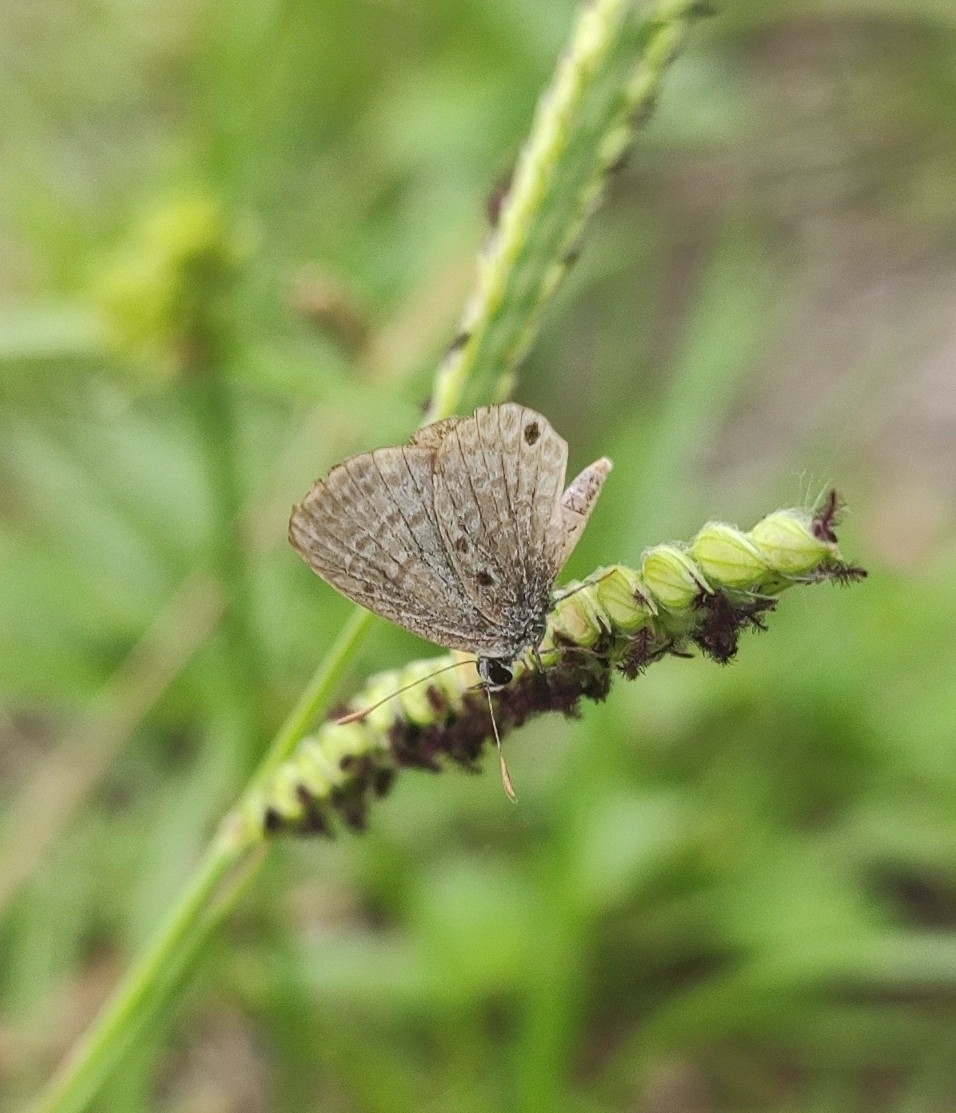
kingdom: Animalia
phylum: Arthropoda
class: Insecta
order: Lepidoptera
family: Lycaenidae
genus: Hemiargus
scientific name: Hemiargus hanno
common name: Common blue
